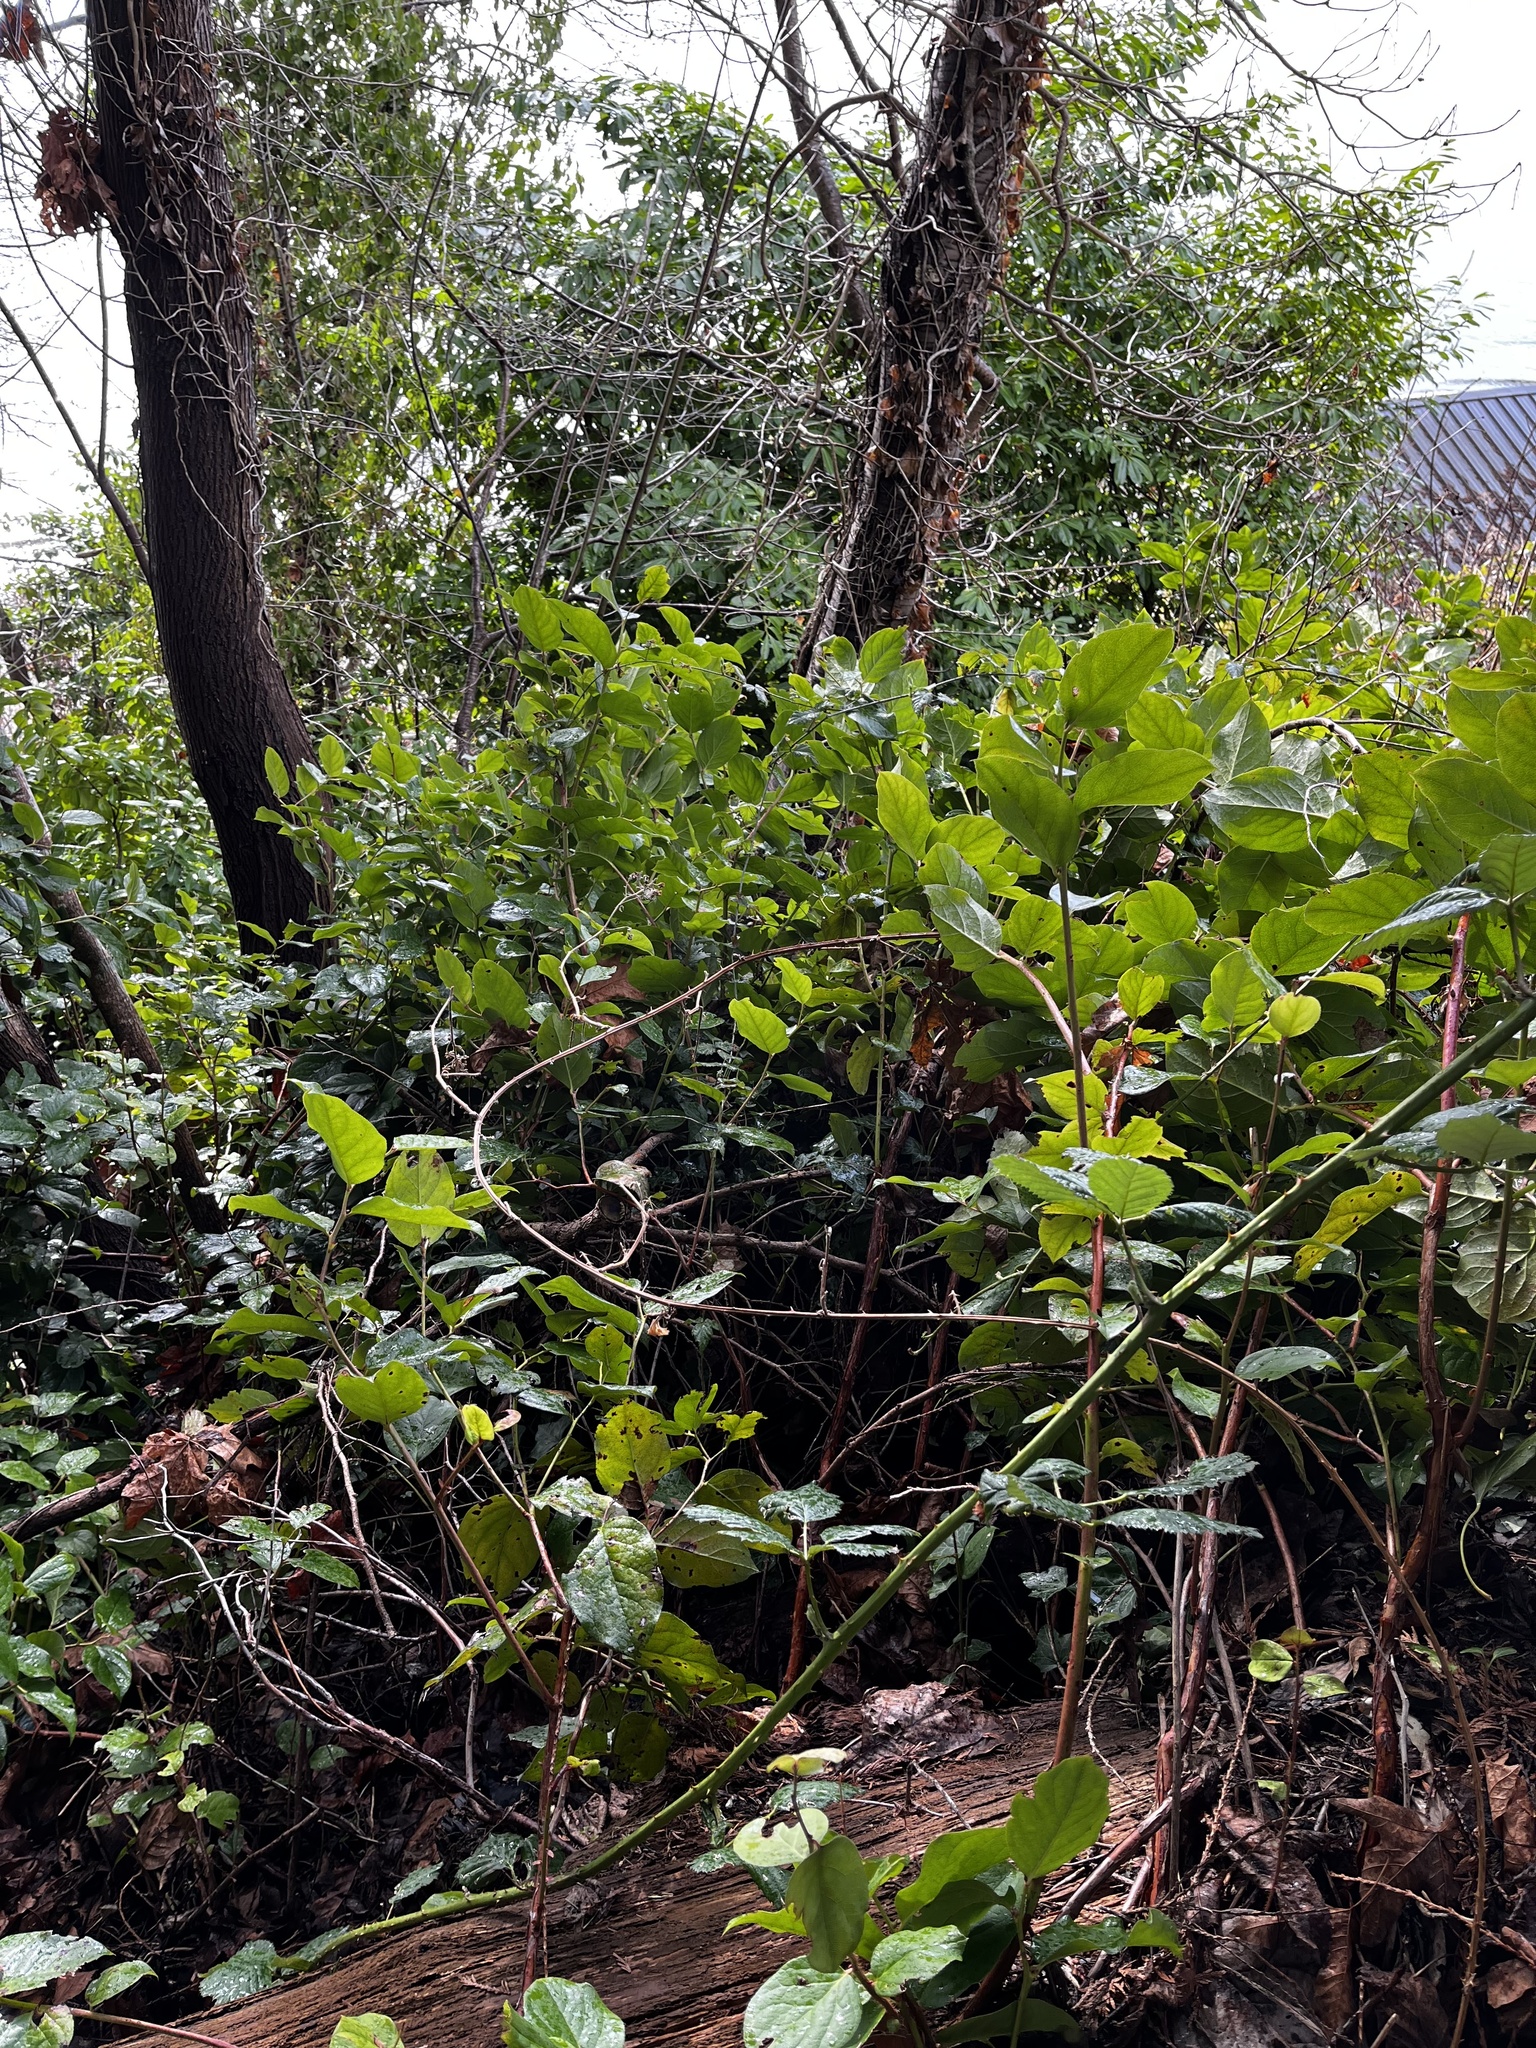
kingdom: Plantae
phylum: Tracheophyta
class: Magnoliopsida
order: Ericales
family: Ericaceae
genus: Gaultheria
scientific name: Gaultheria shallon
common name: Shallon
